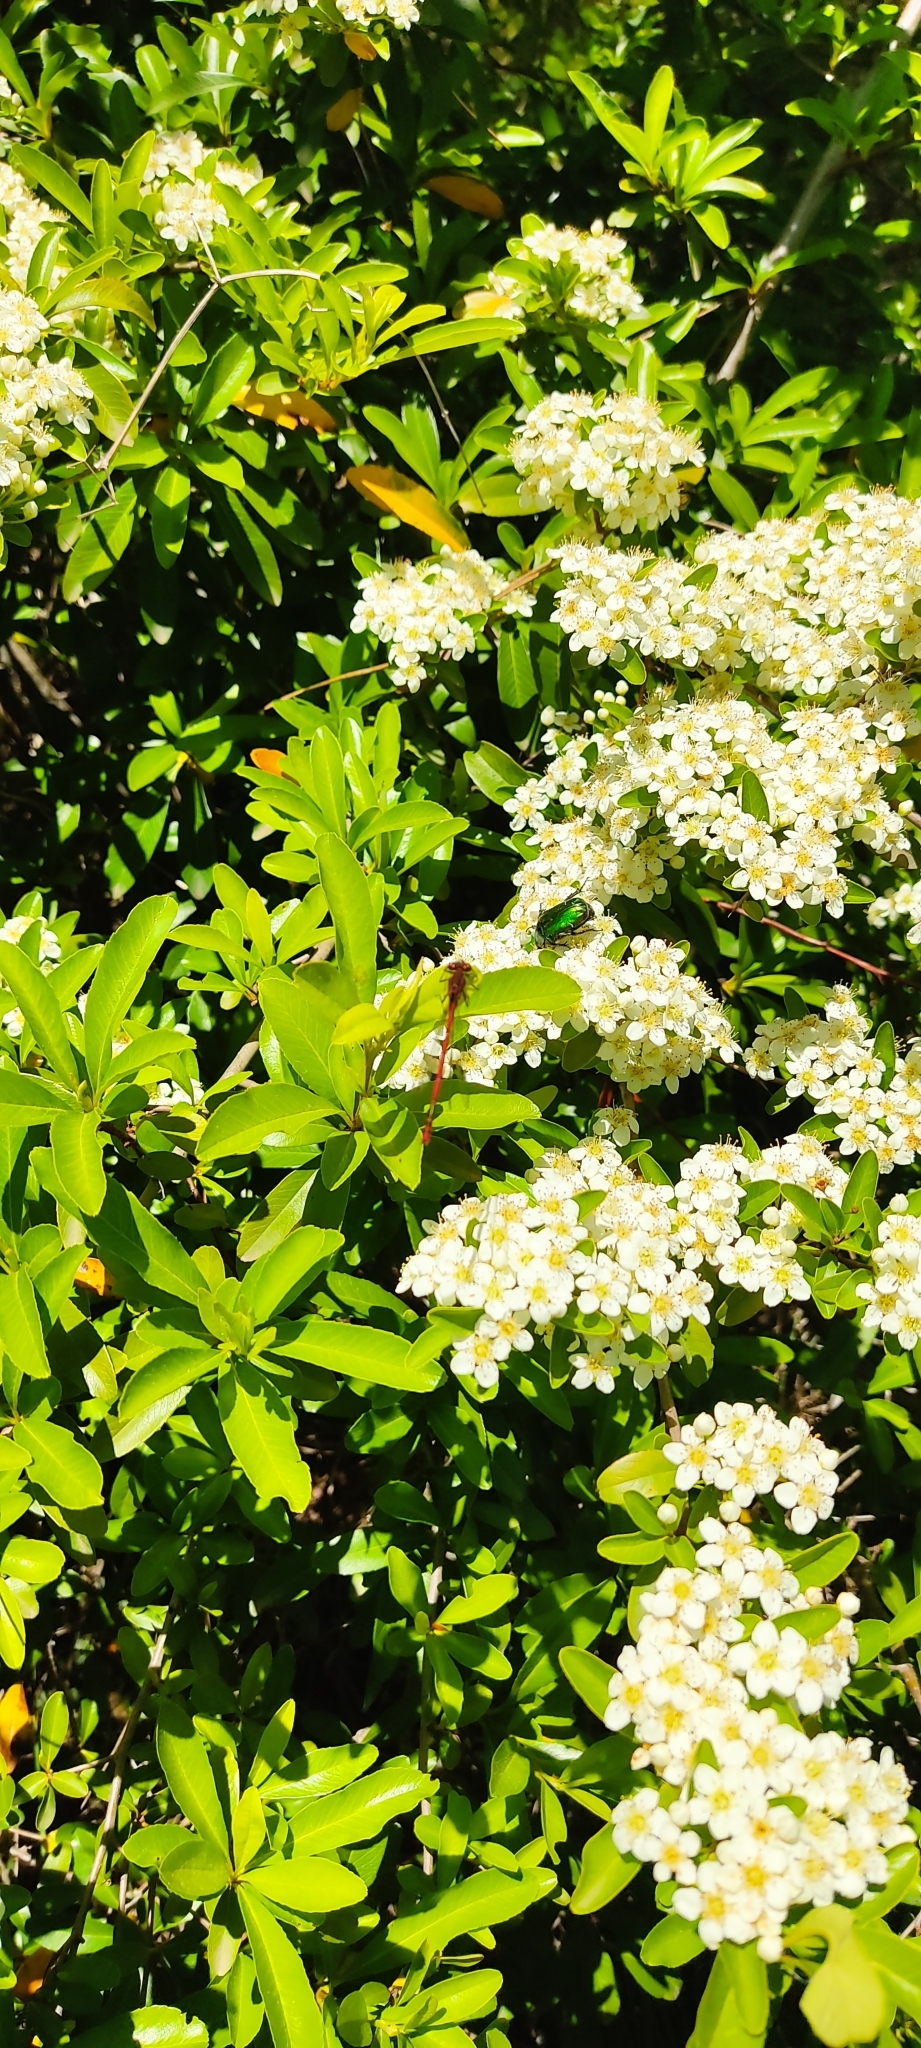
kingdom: Animalia
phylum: Arthropoda
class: Insecta
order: Odonata
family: Coenagrionidae
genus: Pyrrhosoma
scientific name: Pyrrhosoma nymphula
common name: Large red damsel
